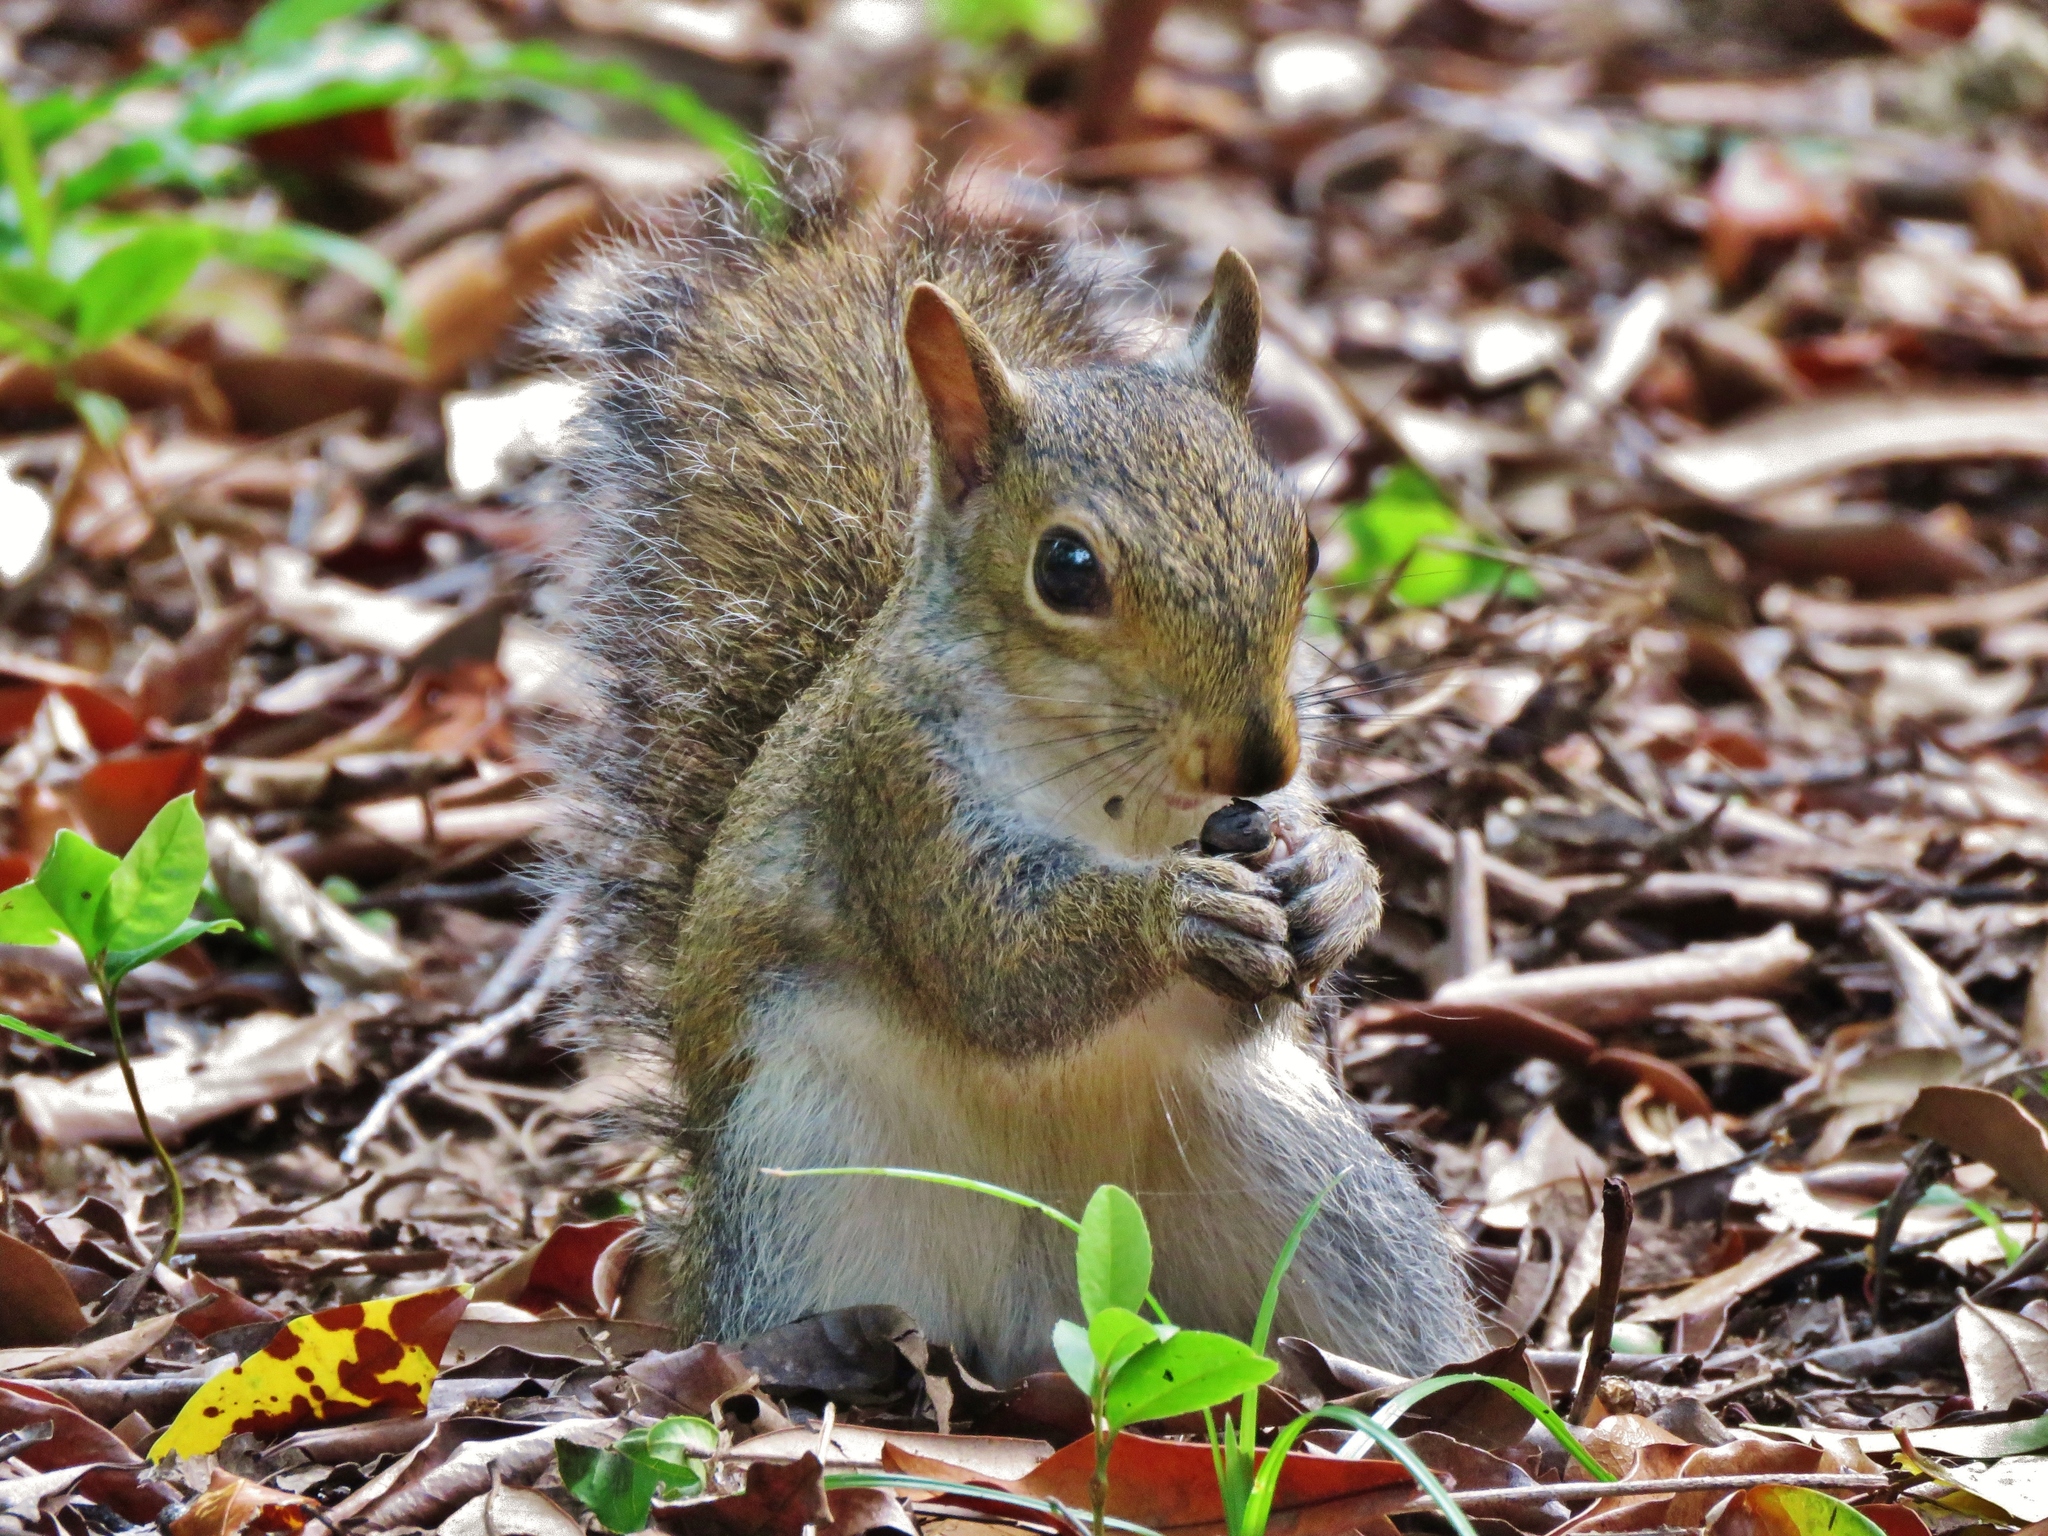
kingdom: Animalia
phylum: Chordata
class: Mammalia
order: Rodentia
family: Sciuridae
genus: Sciurus
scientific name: Sciurus carolinensis
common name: Eastern gray squirrel
